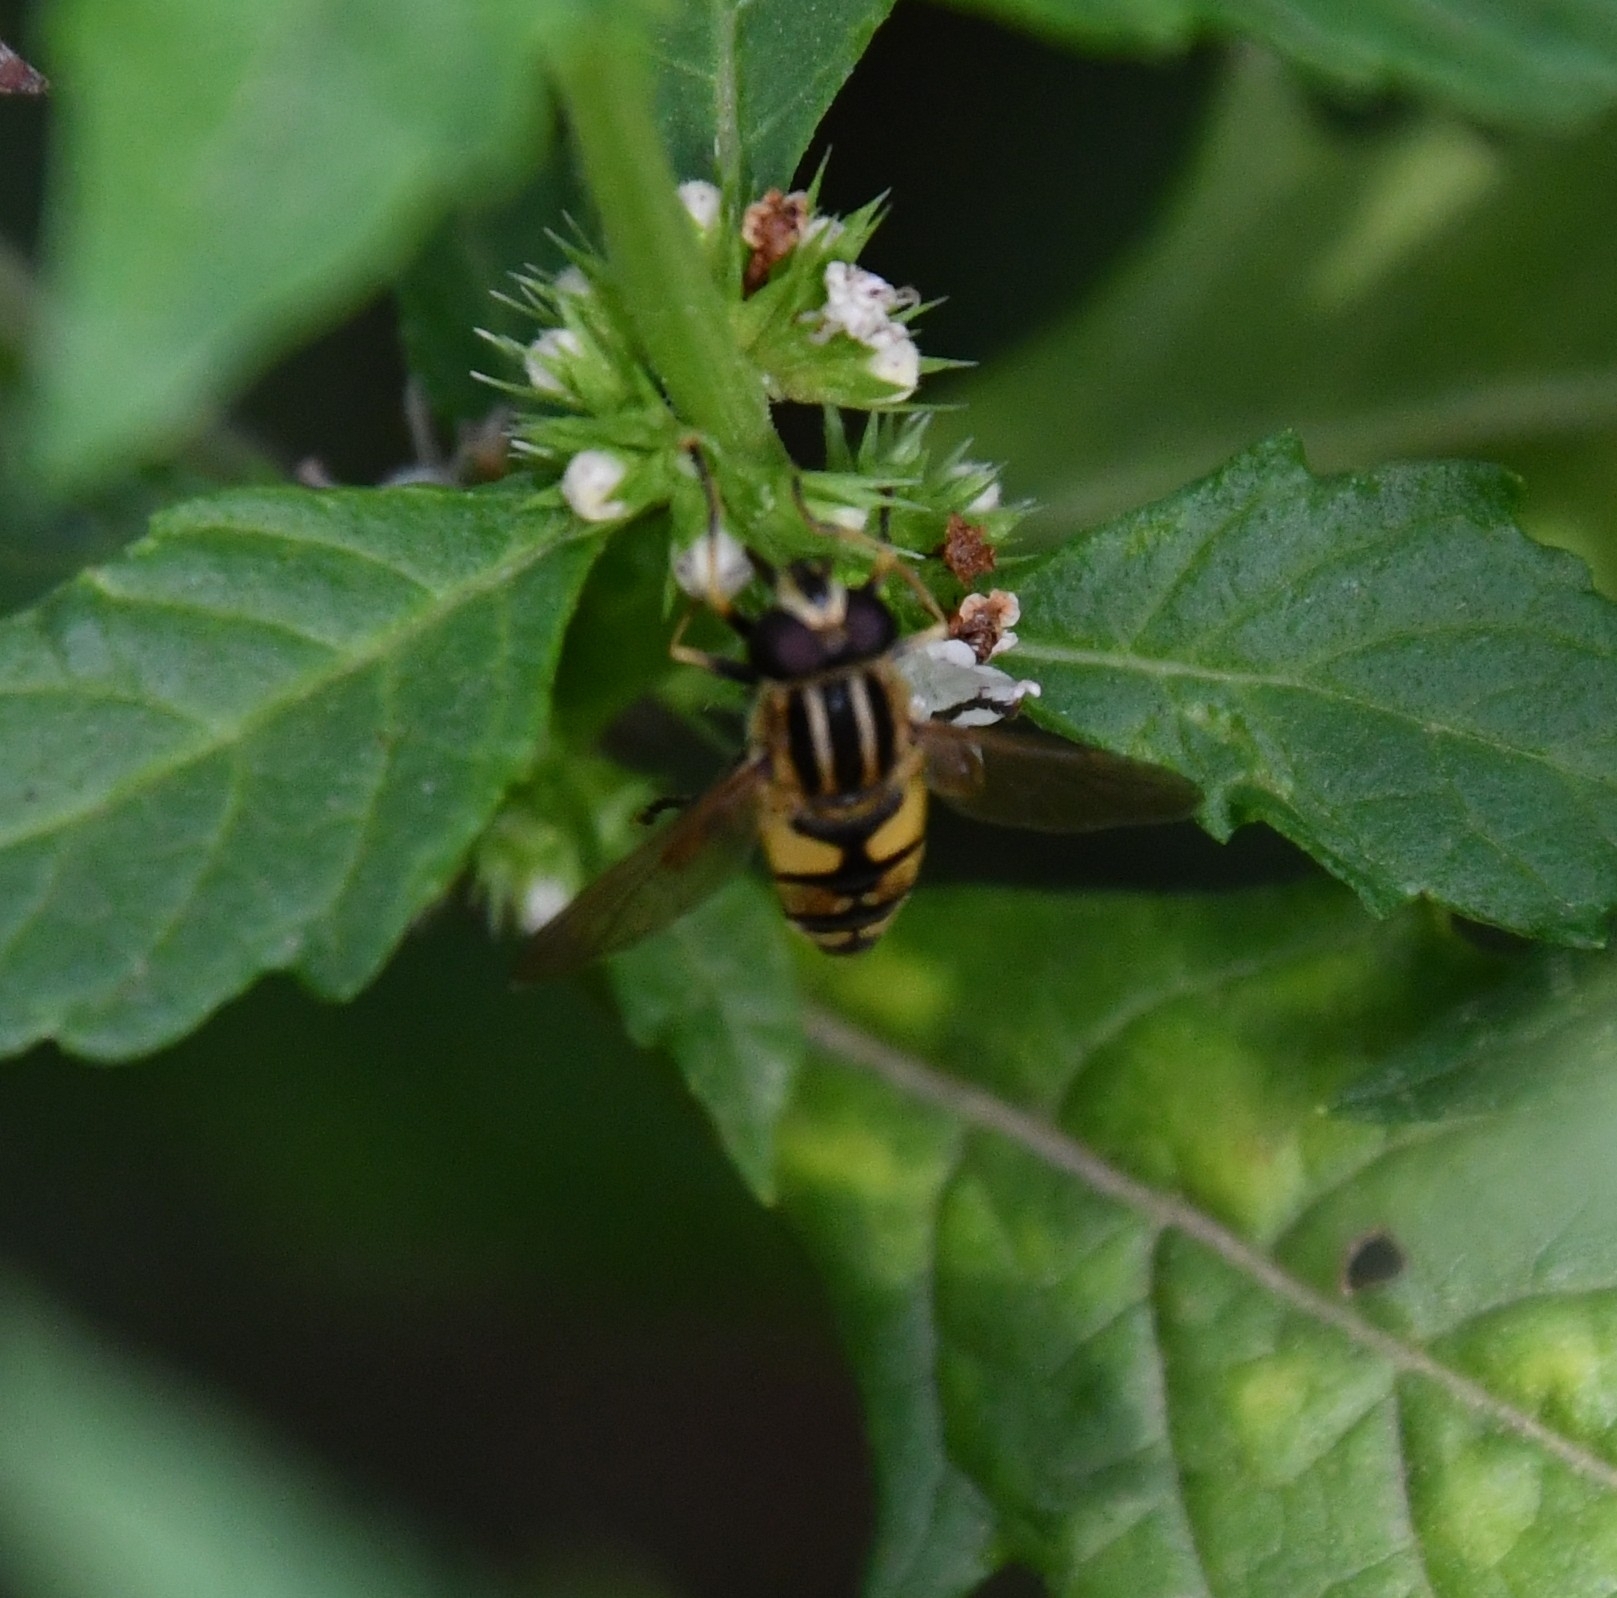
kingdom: Animalia
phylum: Arthropoda
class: Insecta
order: Diptera
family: Syrphidae
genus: Helophilus
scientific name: Helophilus pendulus
